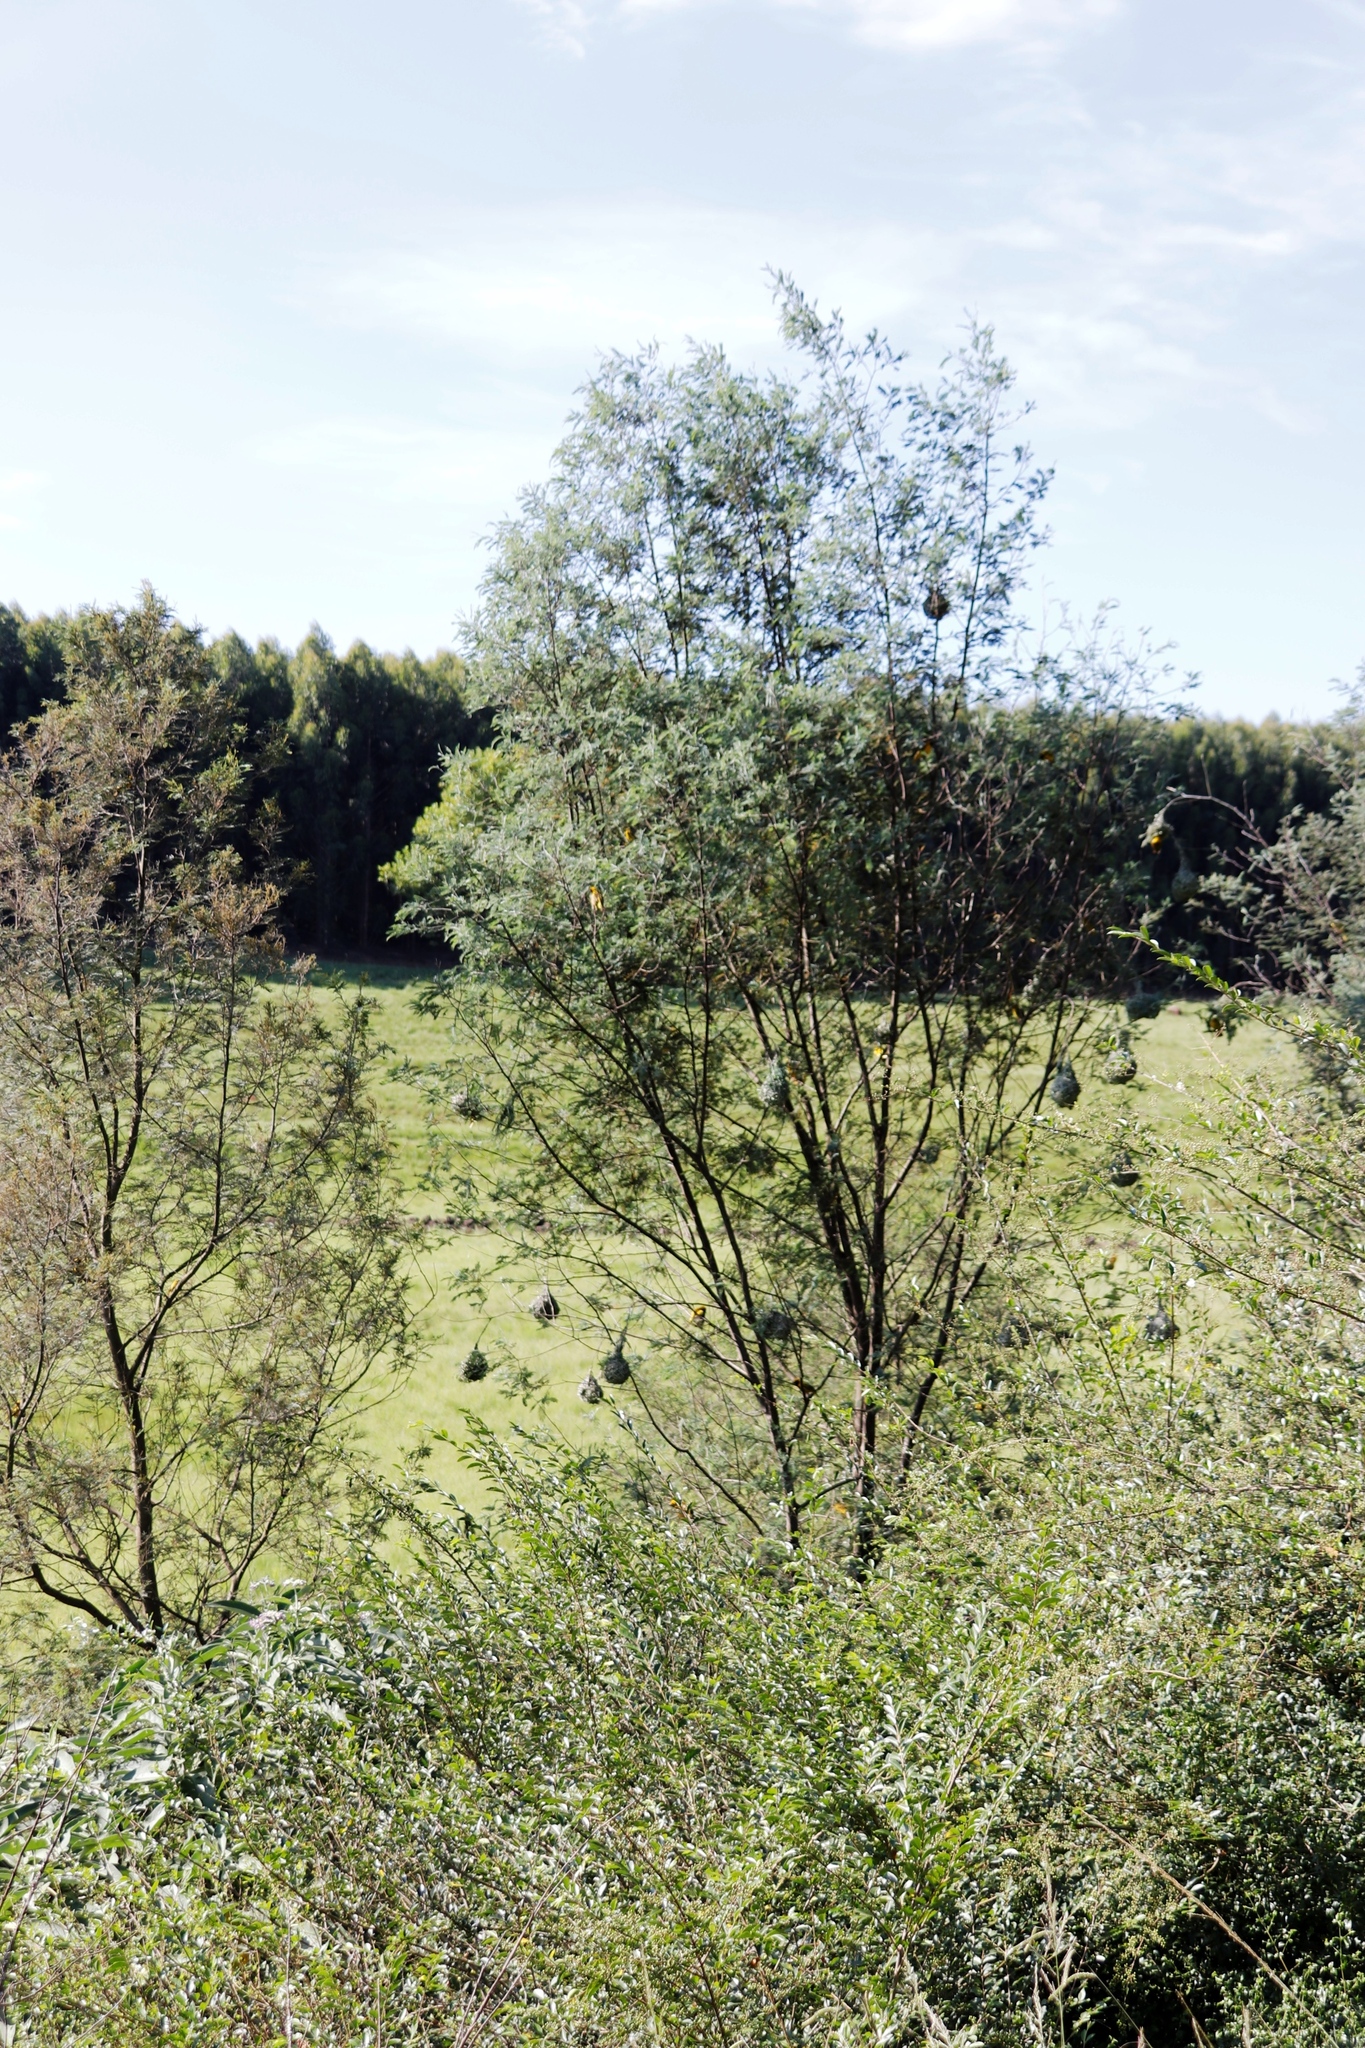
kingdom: Plantae
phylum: Tracheophyta
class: Magnoliopsida
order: Fabales
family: Fabaceae
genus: Acacia
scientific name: Acacia dealbata
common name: Silver wattle
